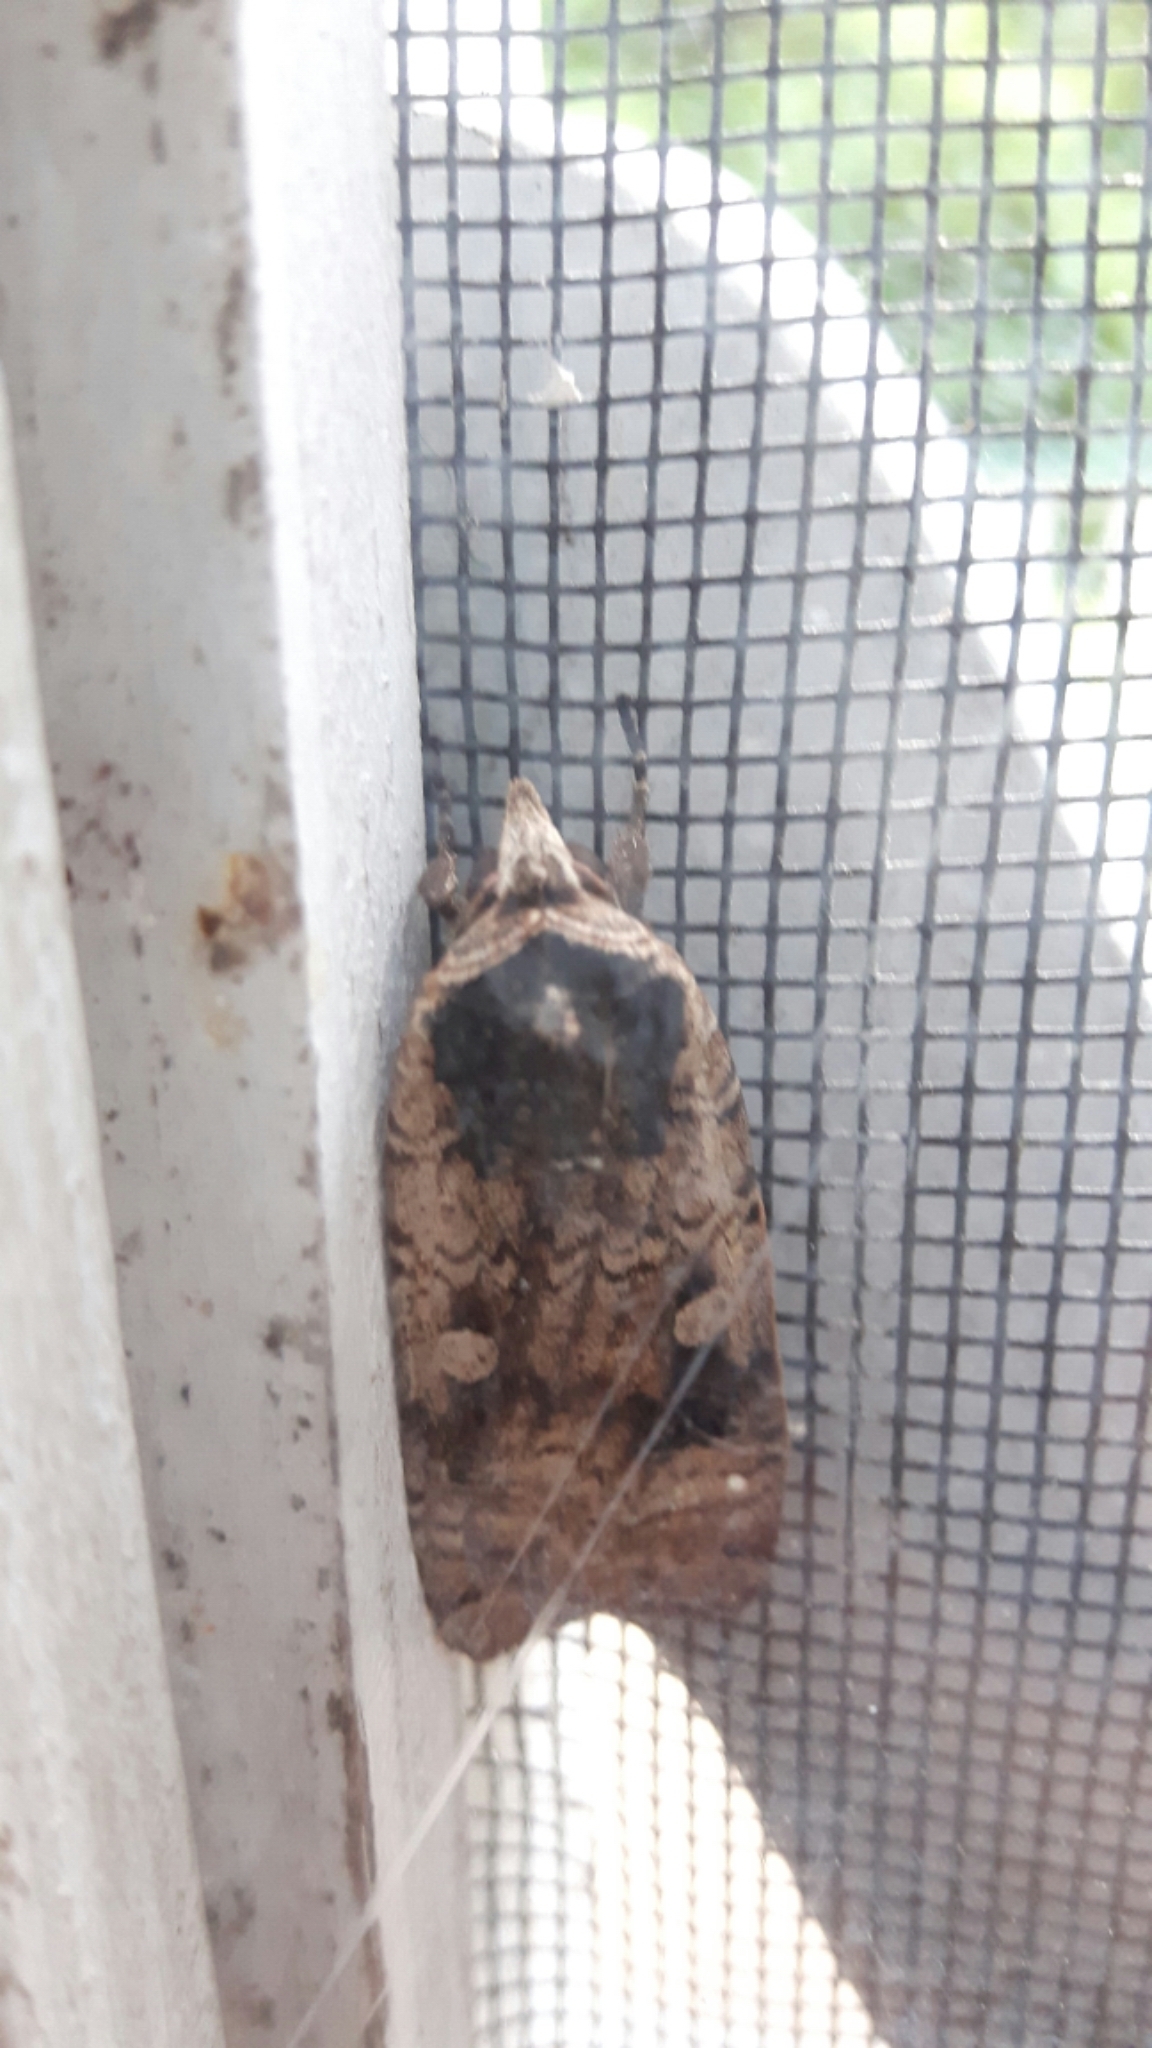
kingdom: Animalia
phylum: Arthropoda
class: Insecta
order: Lepidoptera
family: Noctuidae
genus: Noctua
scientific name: Noctua pronuba
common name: Large yellow underwing
